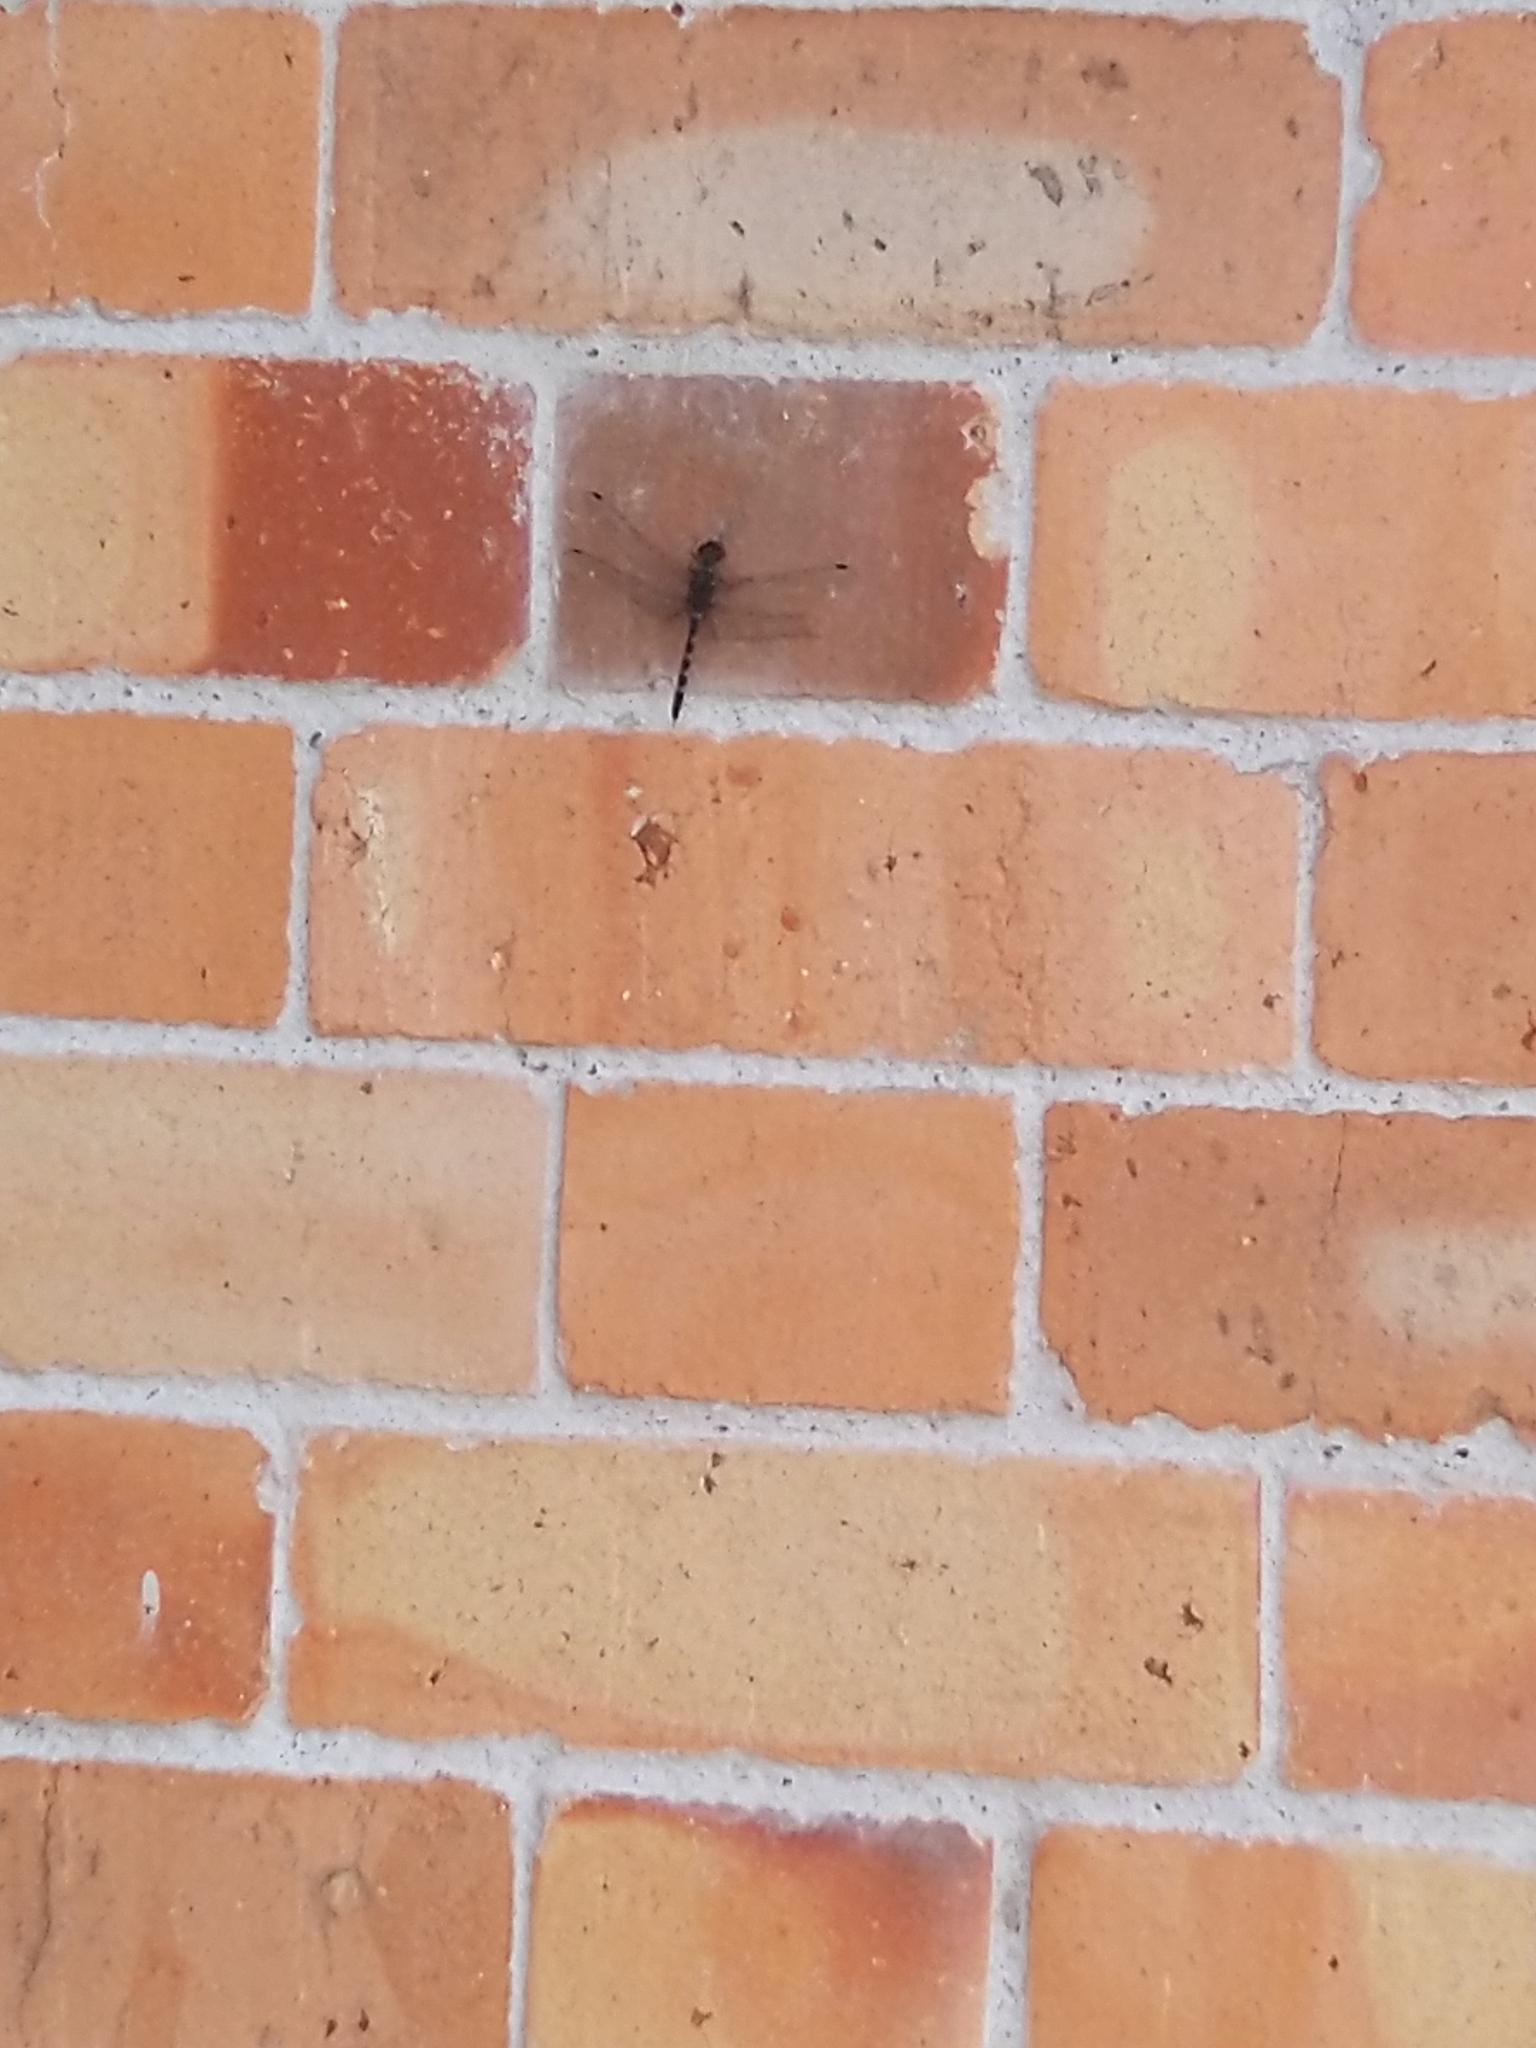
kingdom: Animalia
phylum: Arthropoda
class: Insecta
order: Odonata
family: Libellulidae
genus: Bradinopyga
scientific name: Bradinopyga geminata
